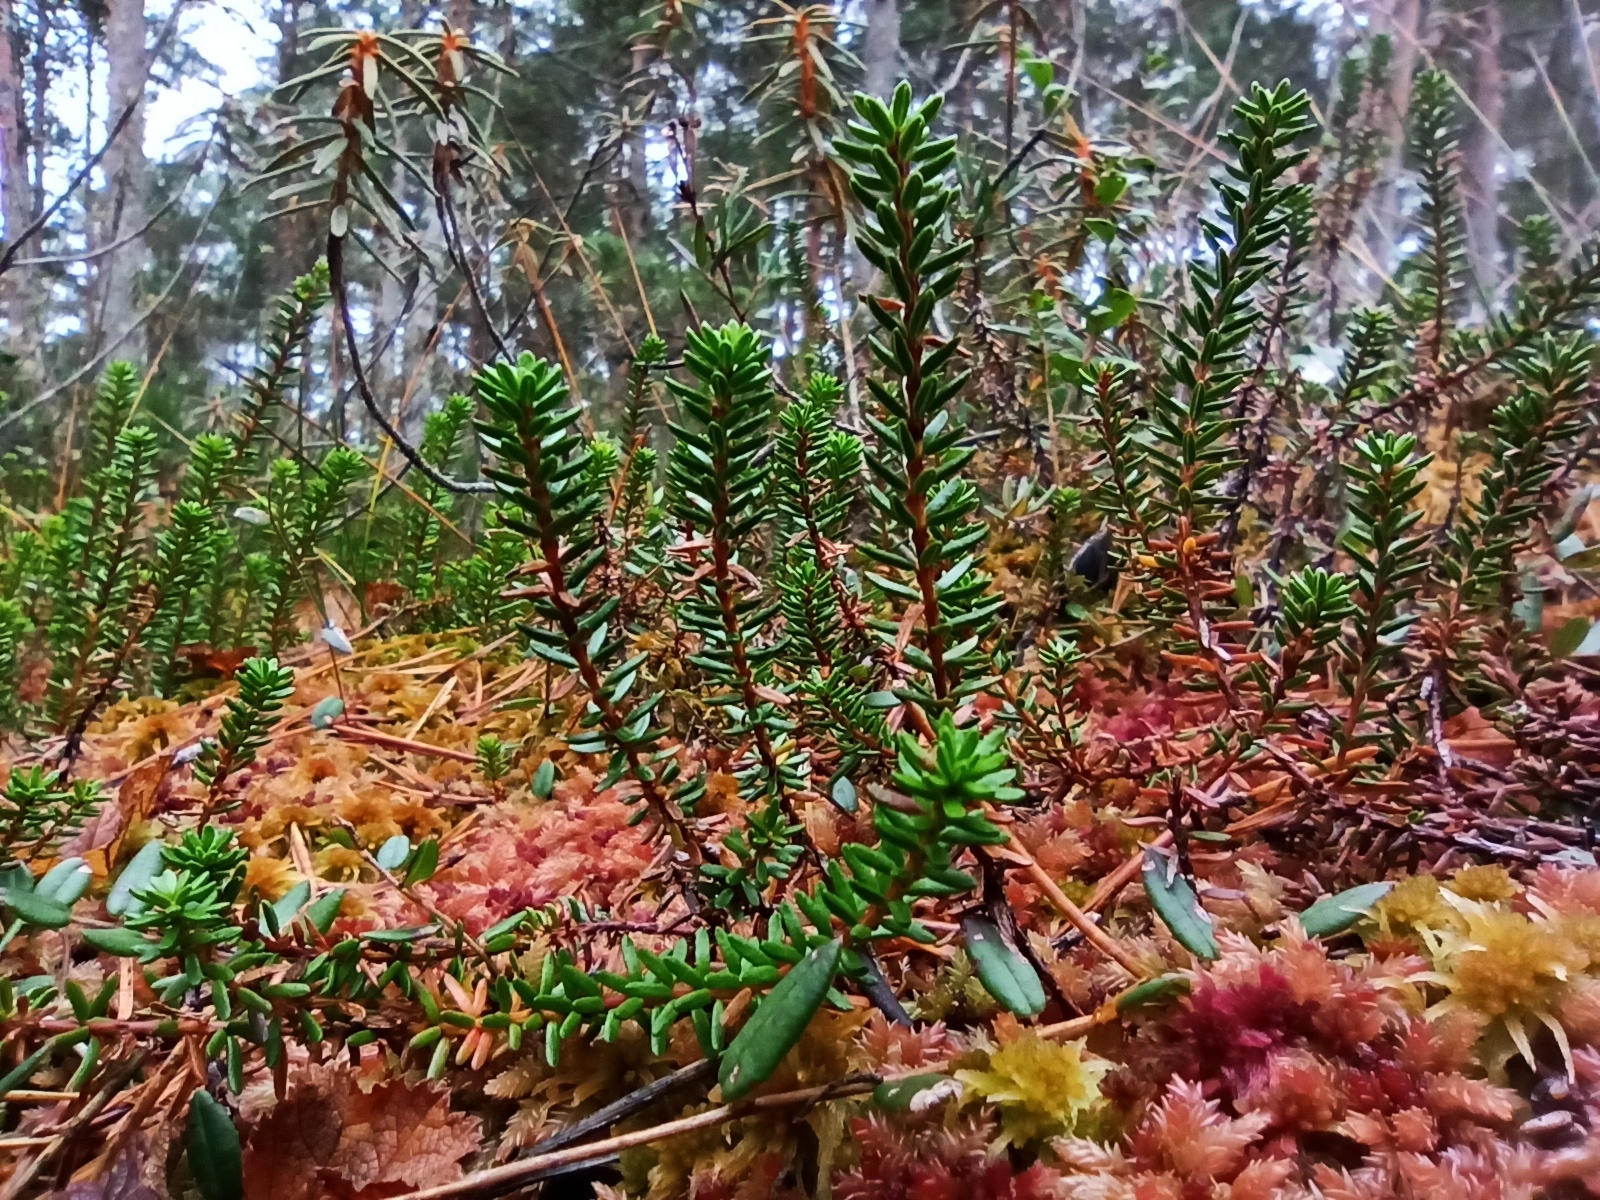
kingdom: Plantae
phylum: Tracheophyta
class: Magnoliopsida
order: Ericales
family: Ericaceae
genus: Empetrum
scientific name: Empetrum nigrum
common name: Black crowberry
